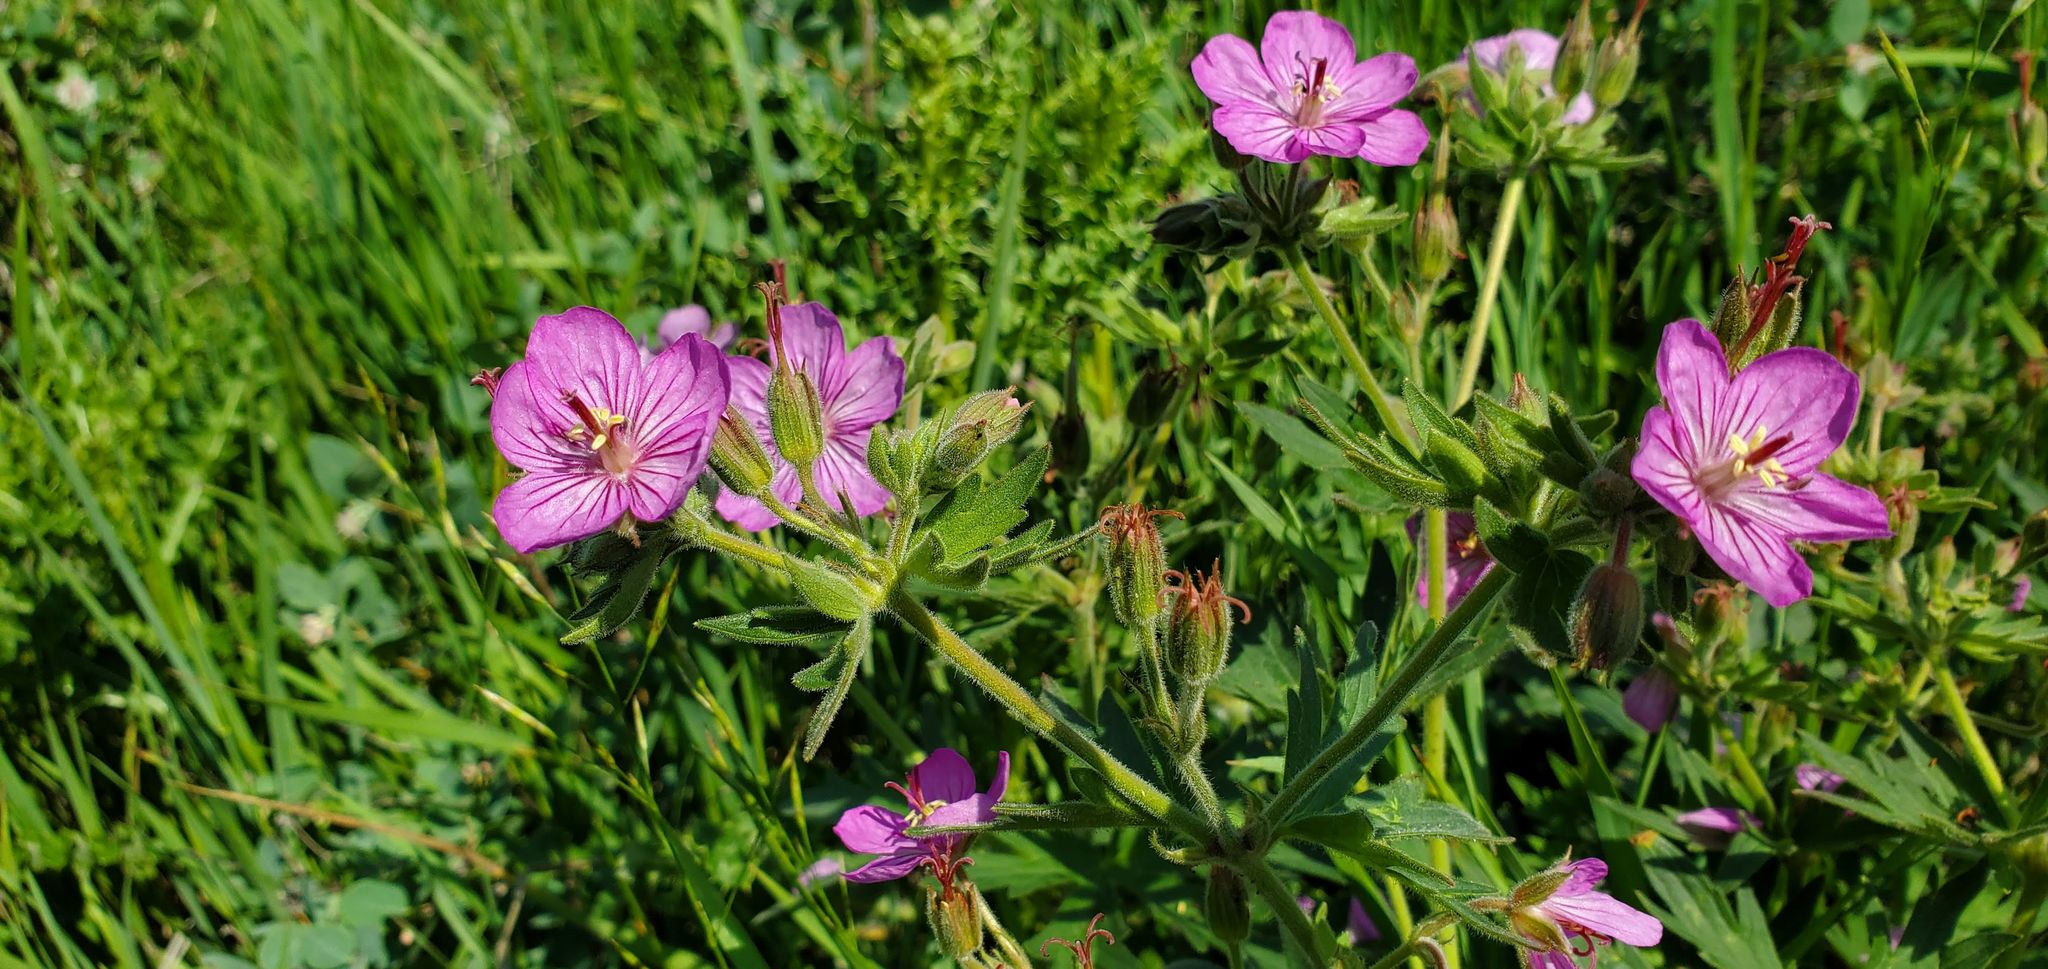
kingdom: Plantae
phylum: Tracheophyta
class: Magnoliopsida
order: Geraniales
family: Geraniaceae
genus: Geranium
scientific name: Geranium viscosissimum
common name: Purple geranium
